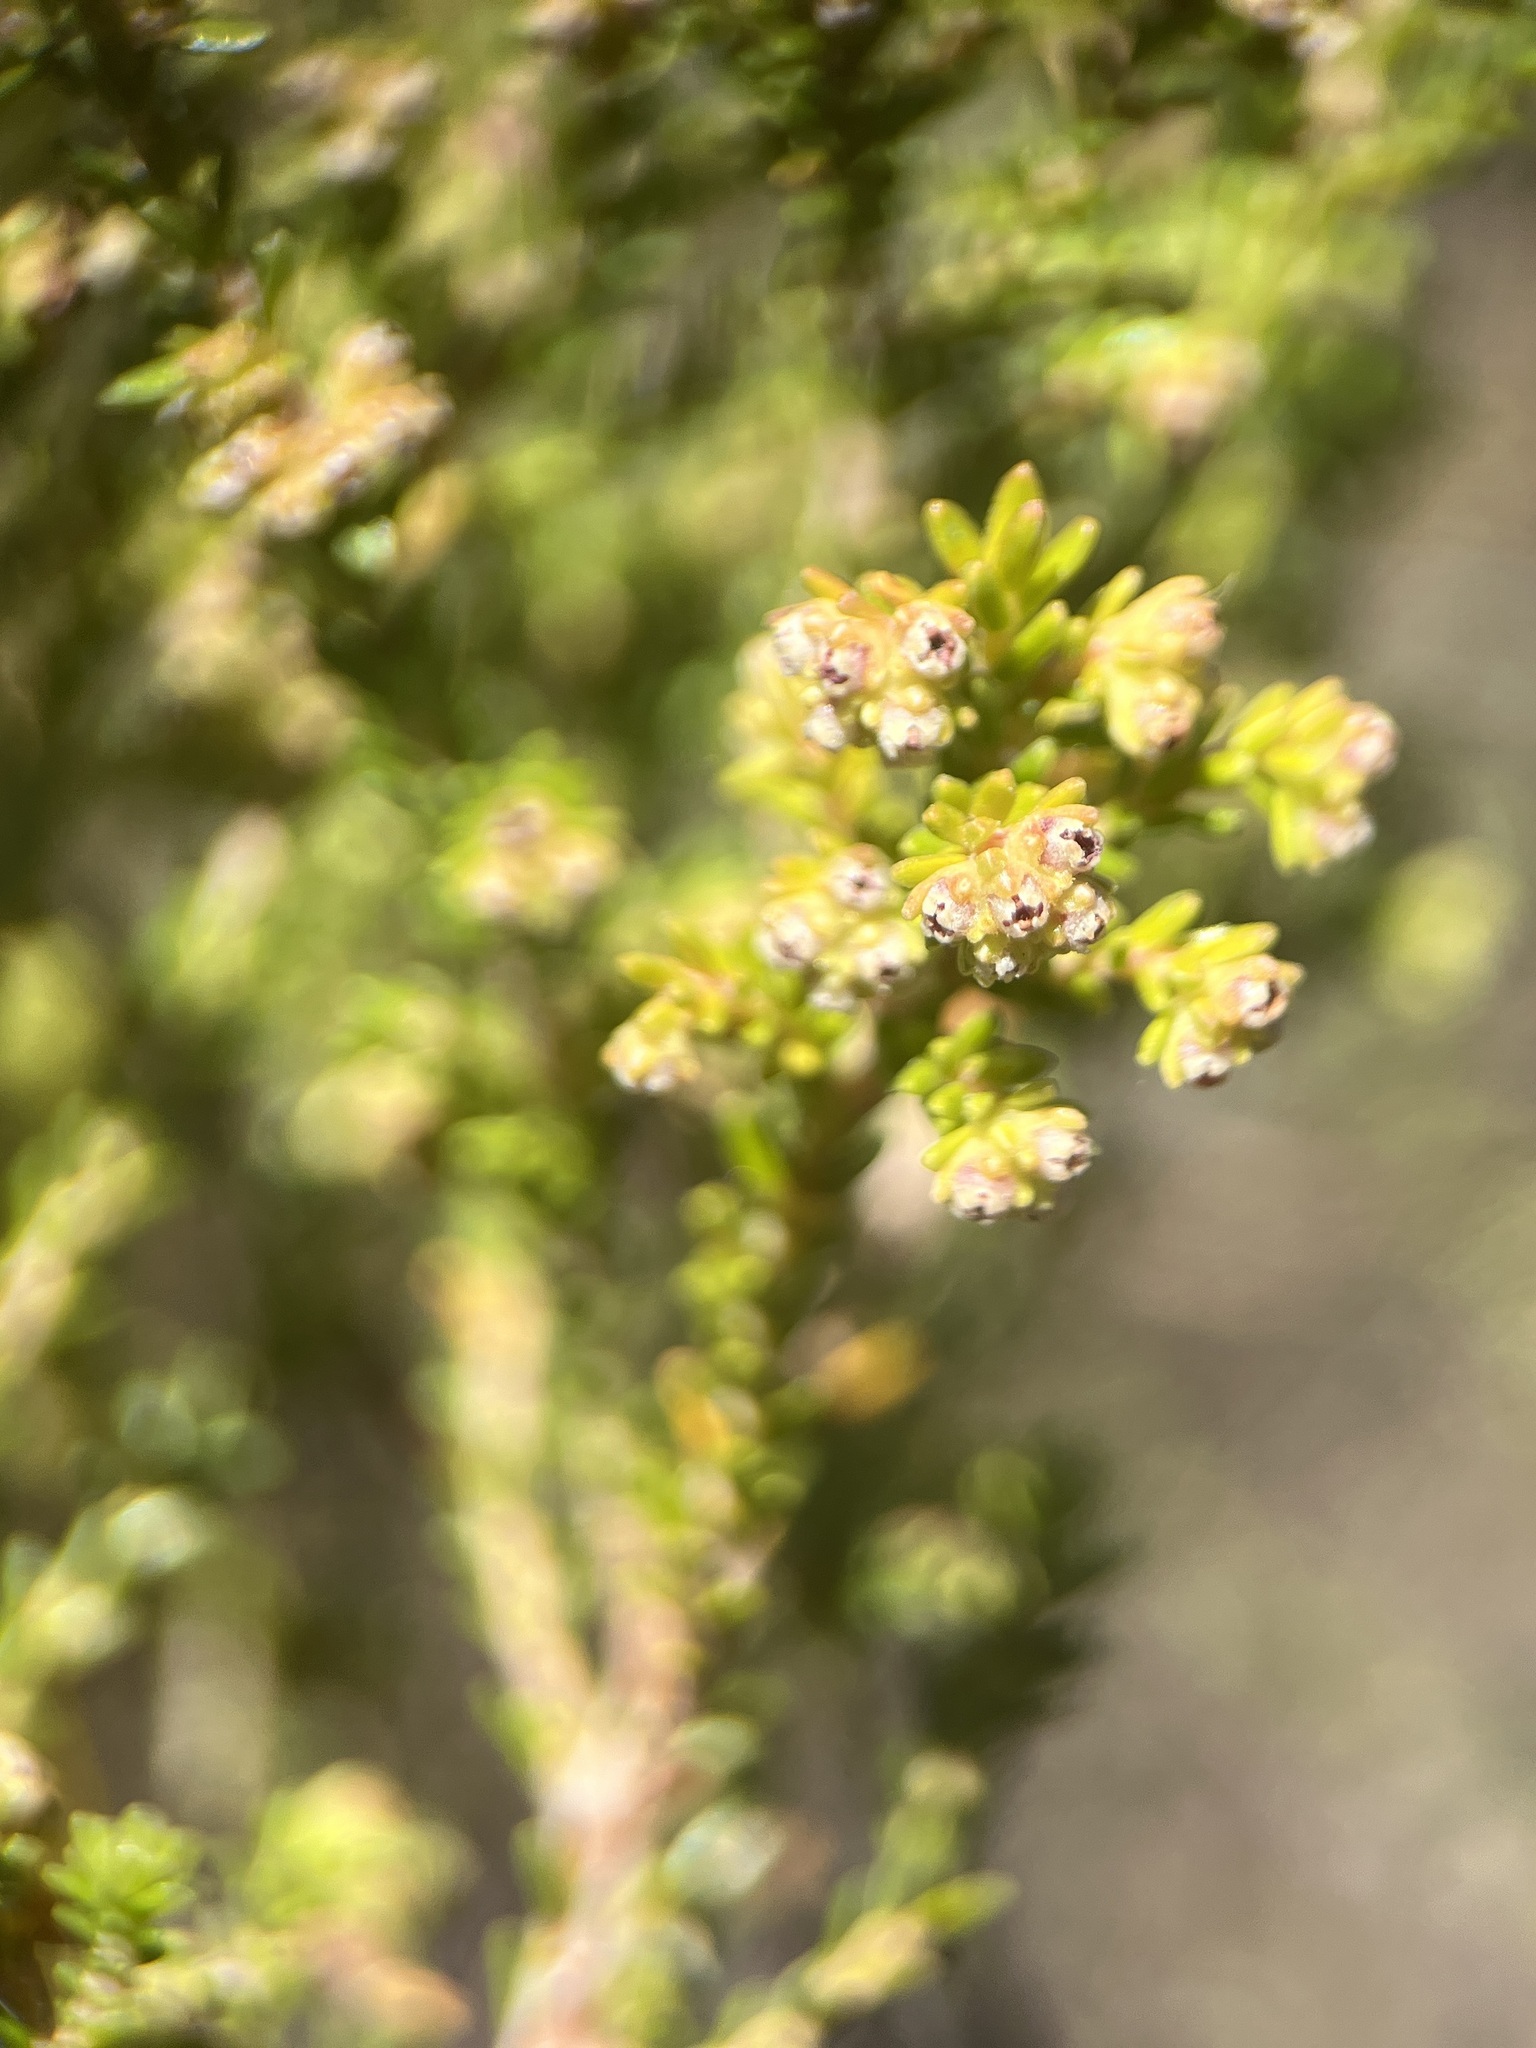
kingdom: Plantae
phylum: Tracheophyta
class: Magnoliopsida
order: Ericales
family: Ericaceae
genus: Erica
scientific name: Erica serrata
